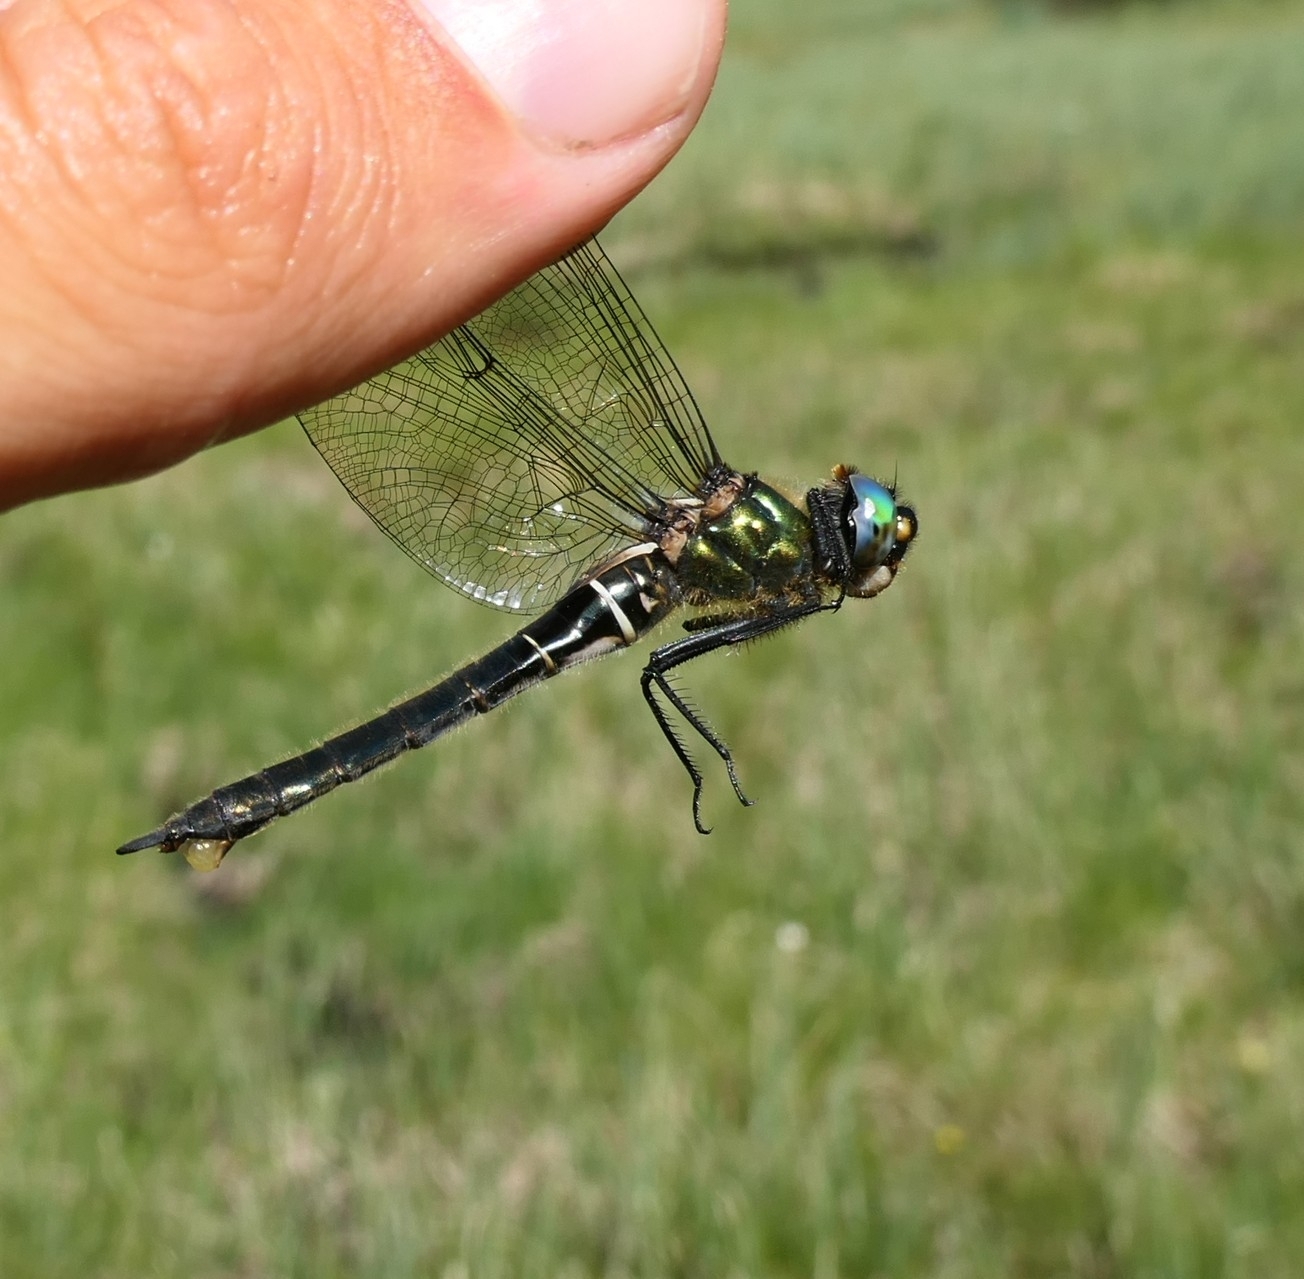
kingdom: Animalia
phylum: Arthropoda
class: Insecta
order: Odonata
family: Corduliidae
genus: Somatochlora
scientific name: Somatochlora alpestris
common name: Alpine emerald
